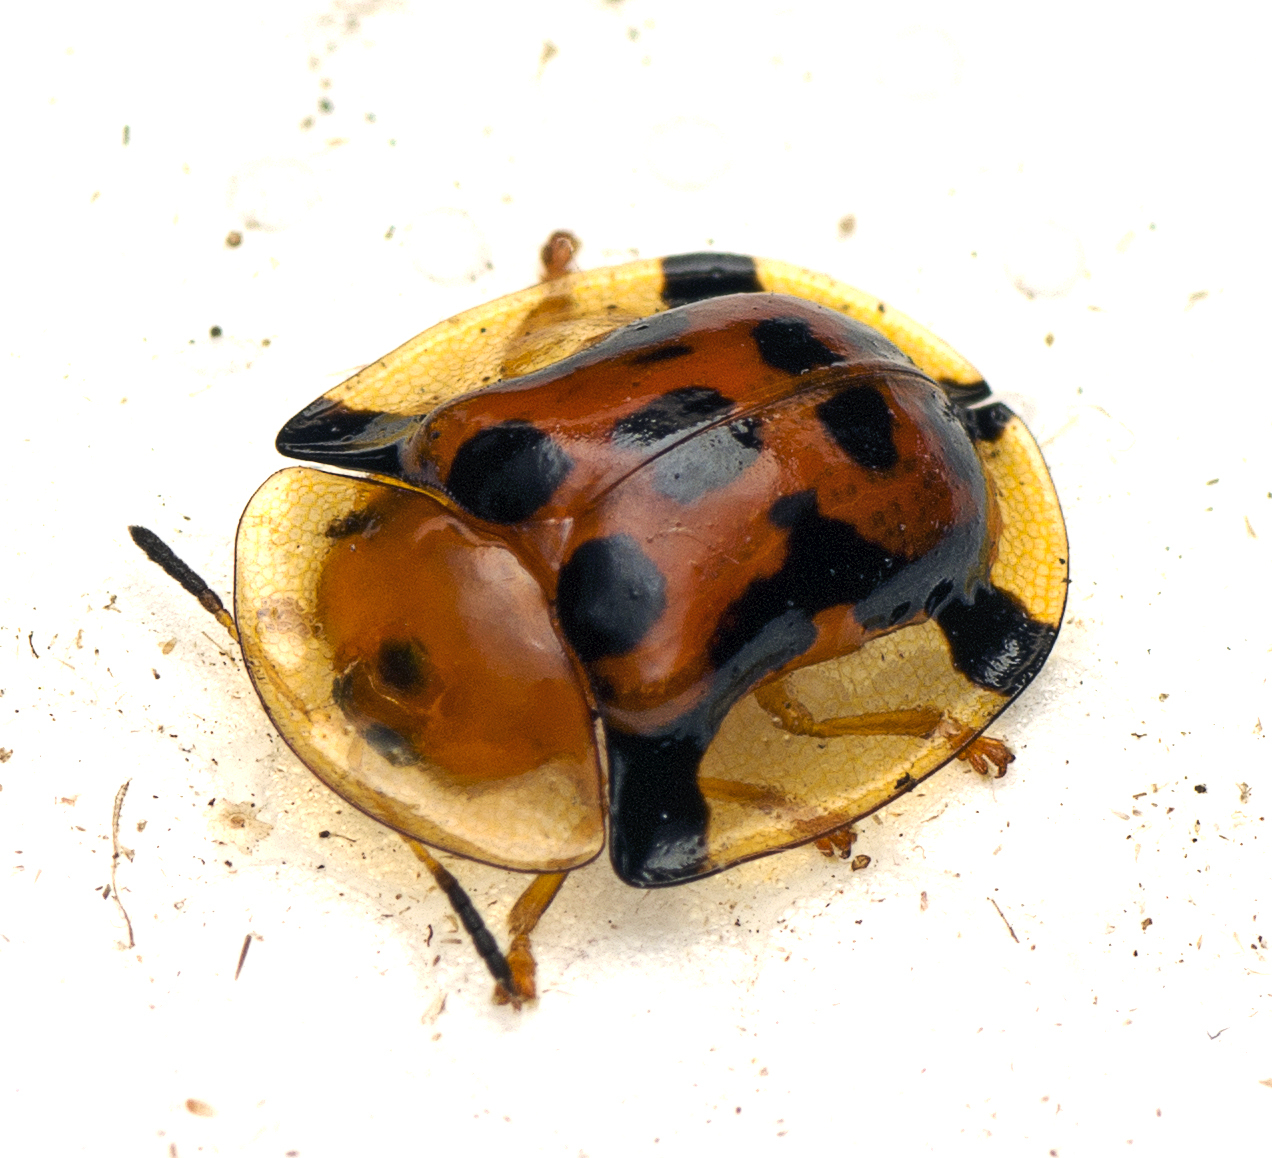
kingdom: Animalia
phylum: Arthropoda
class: Insecta
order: Coleoptera
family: Chrysomelidae
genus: Aspidimorpha
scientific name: Aspidimorpha westwoodii
